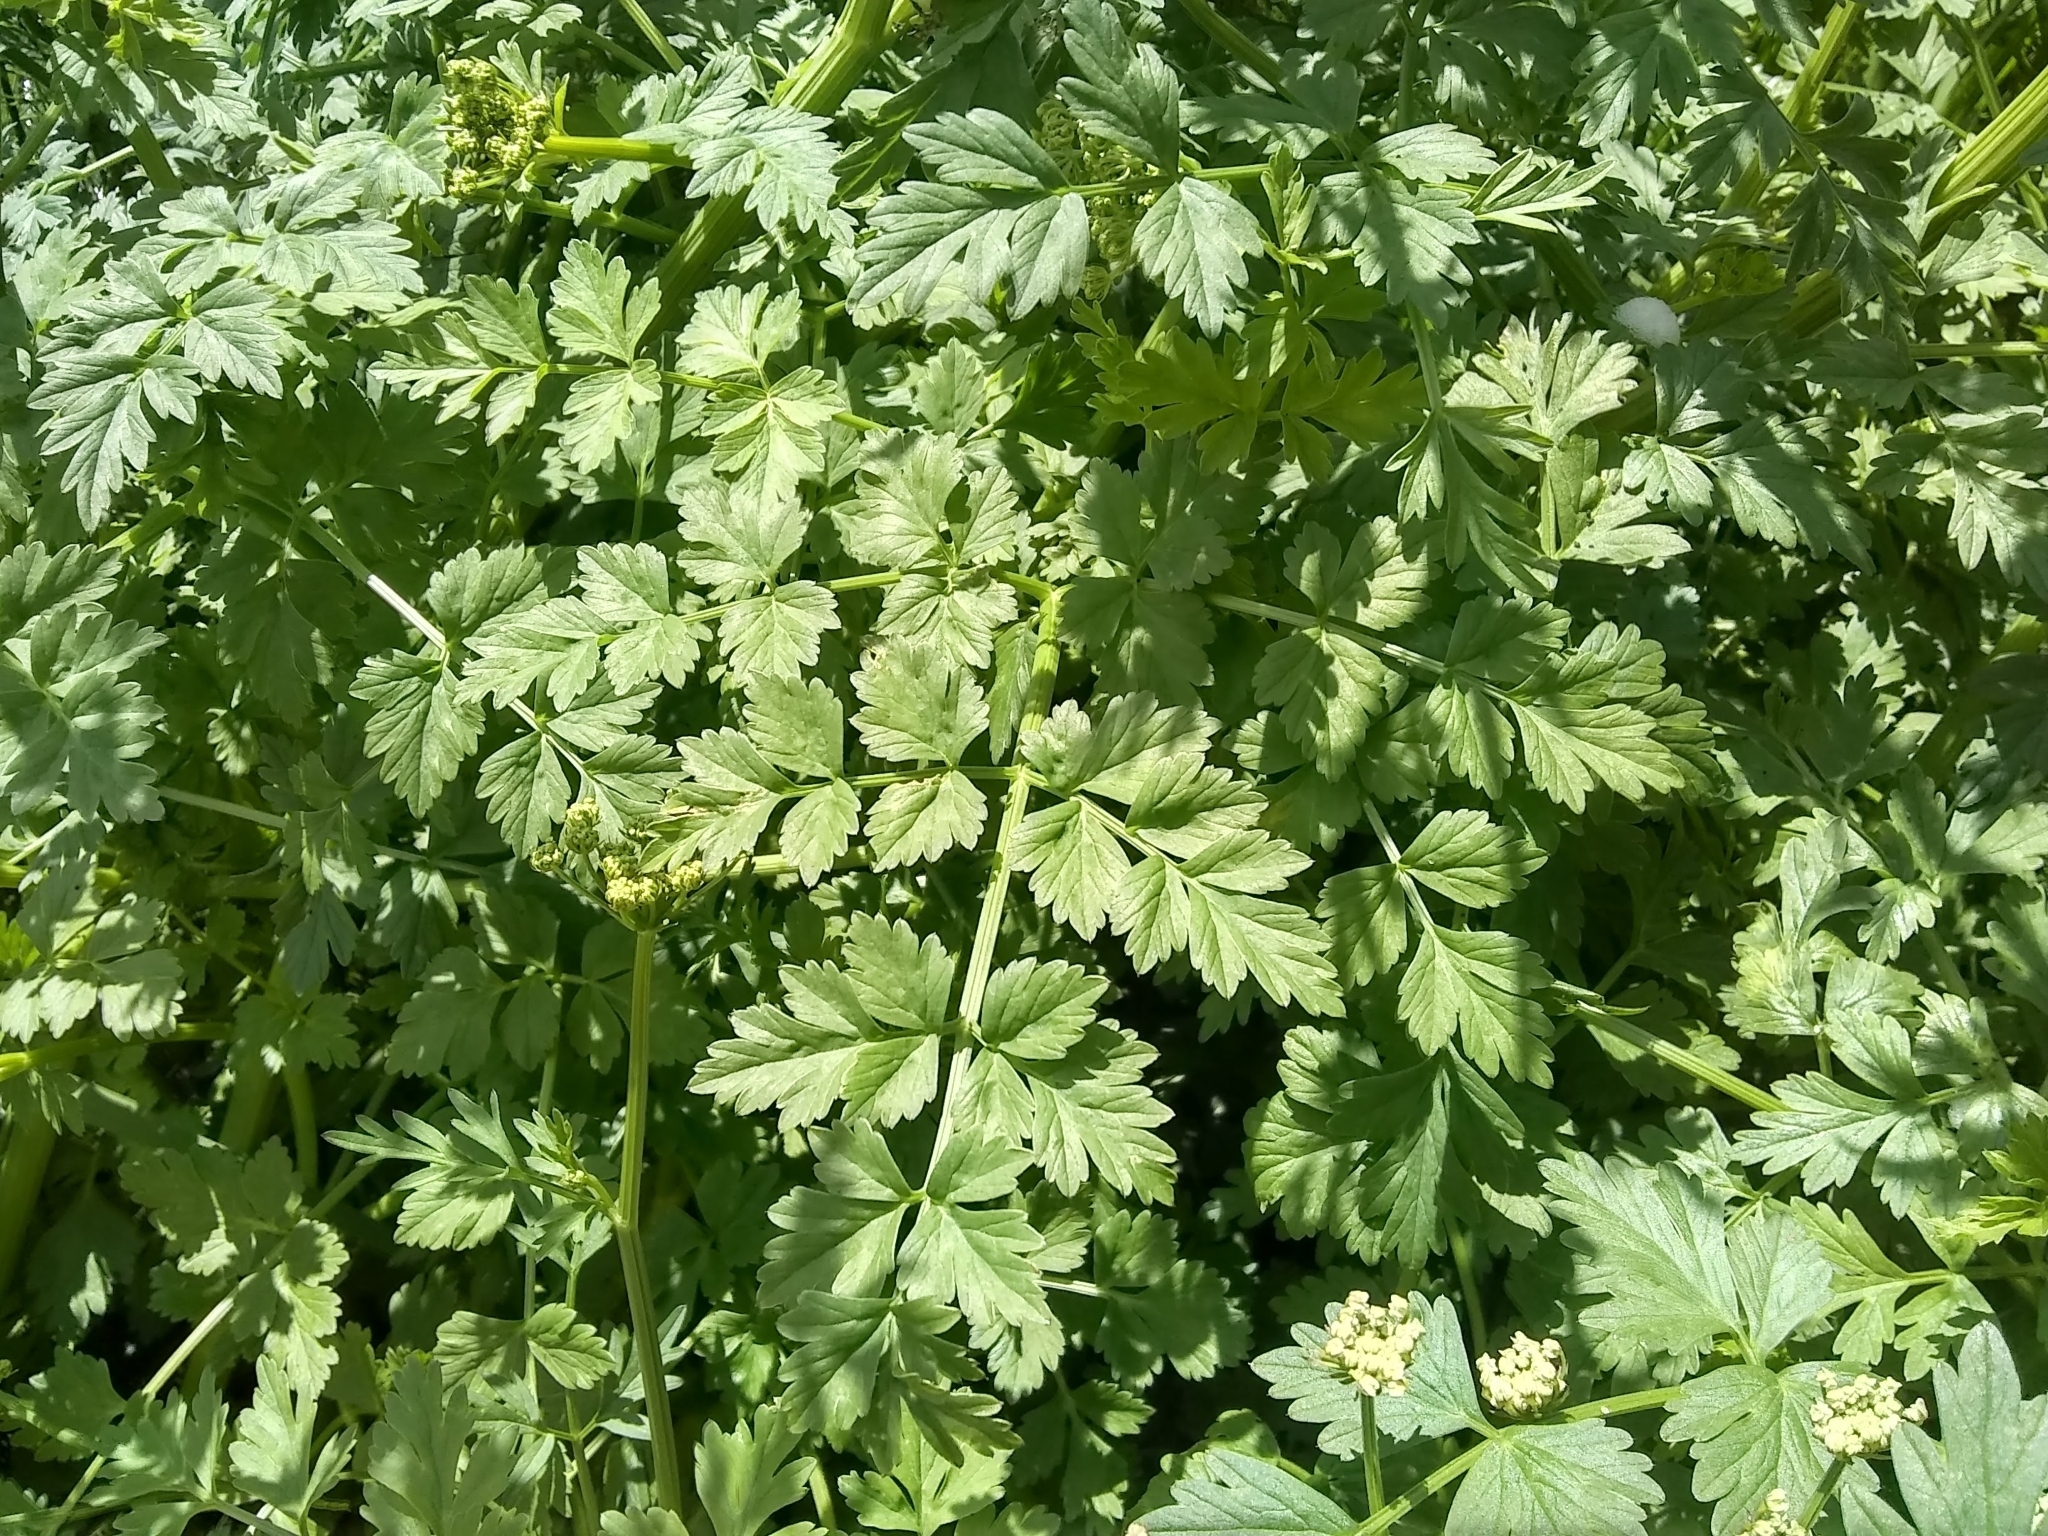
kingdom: Plantae
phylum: Tracheophyta
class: Magnoliopsida
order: Apiales
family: Apiaceae
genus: Oenanthe
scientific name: Oenanthe crocata
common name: Hemlock water-dropwort
